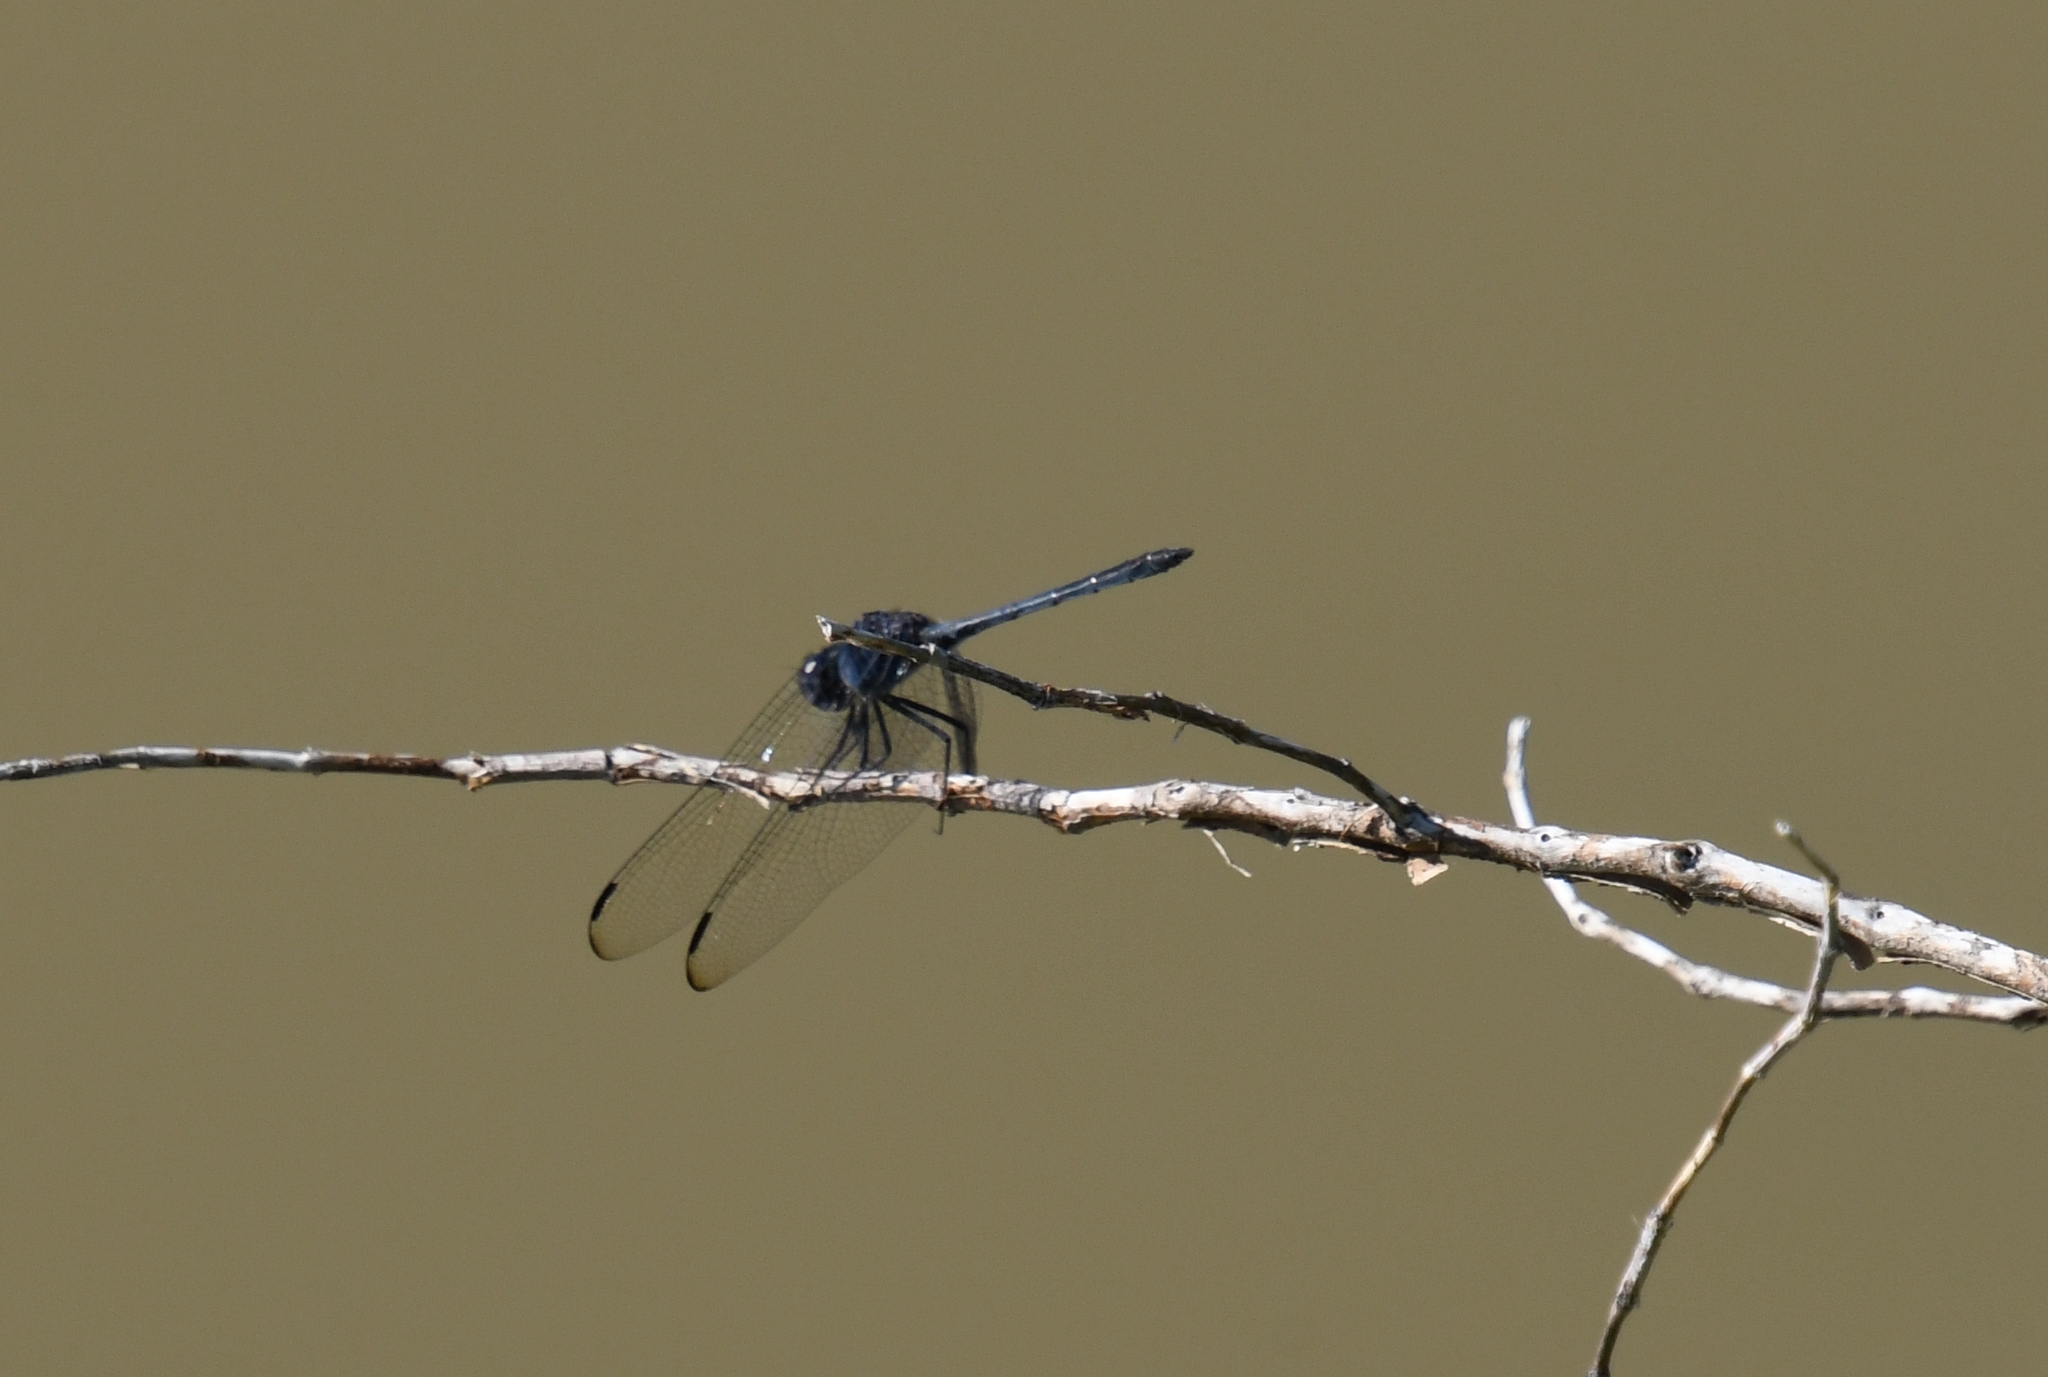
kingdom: Animalia
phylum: Arthropoda
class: Insecta
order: Odonata
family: Libellulidae
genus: Dythemis
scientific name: Dythemis nigrescens
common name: Black setwing
